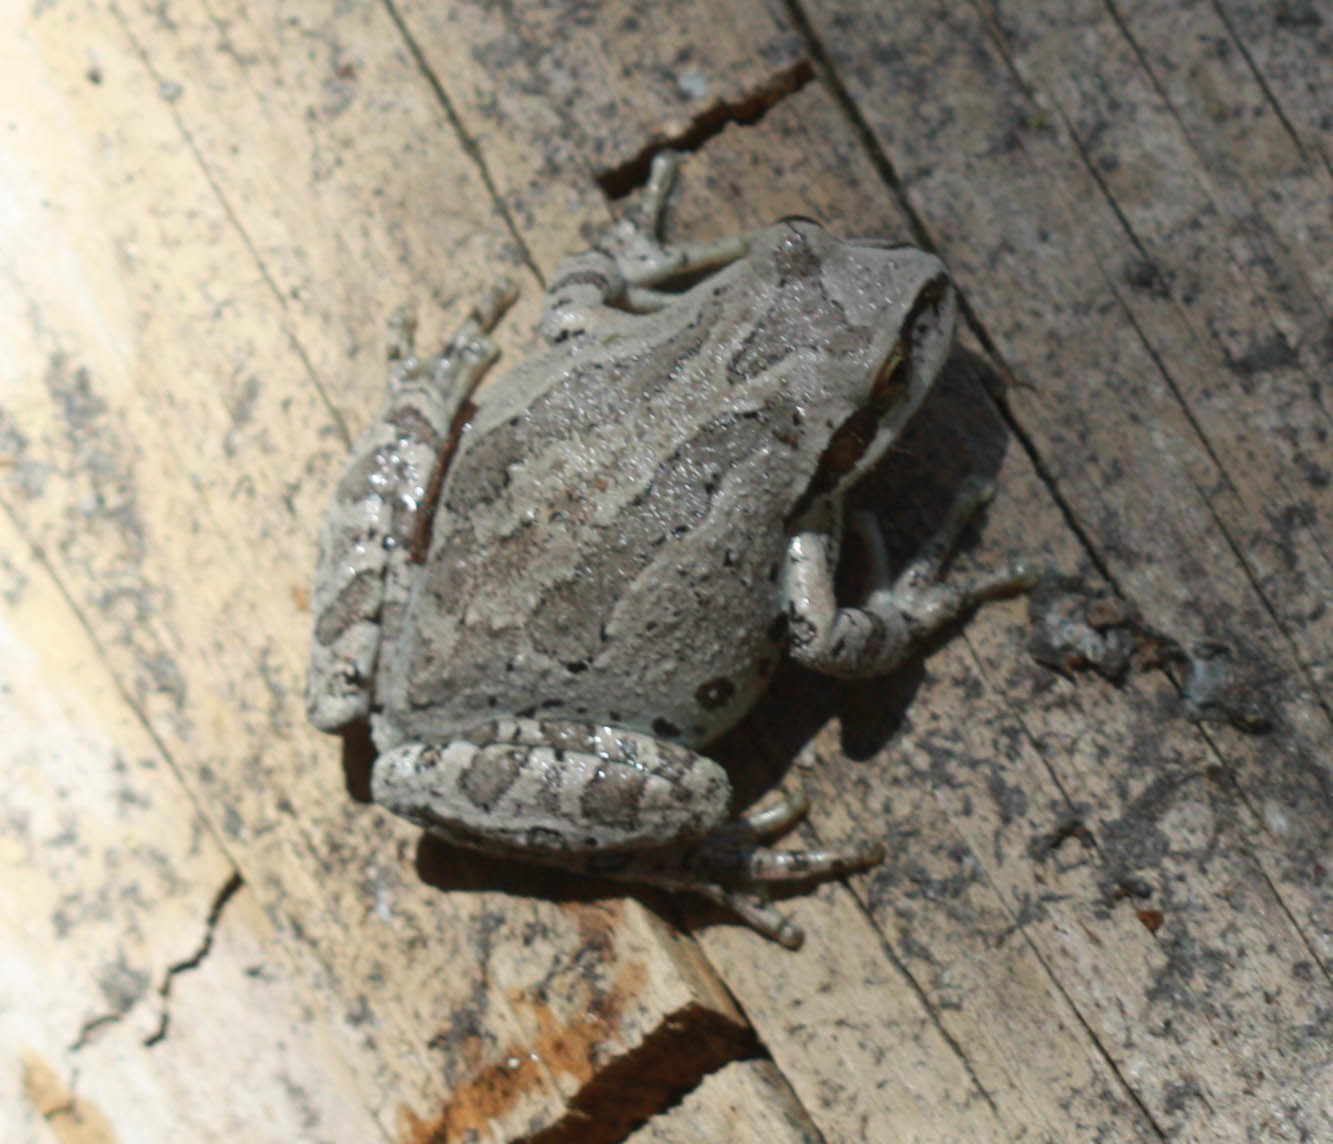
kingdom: Animalia
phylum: Chordata
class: Amphibia
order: Anura
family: Hylidae
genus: Pseudacris
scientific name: Pseudacris regilla
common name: Pacific chorus frog
